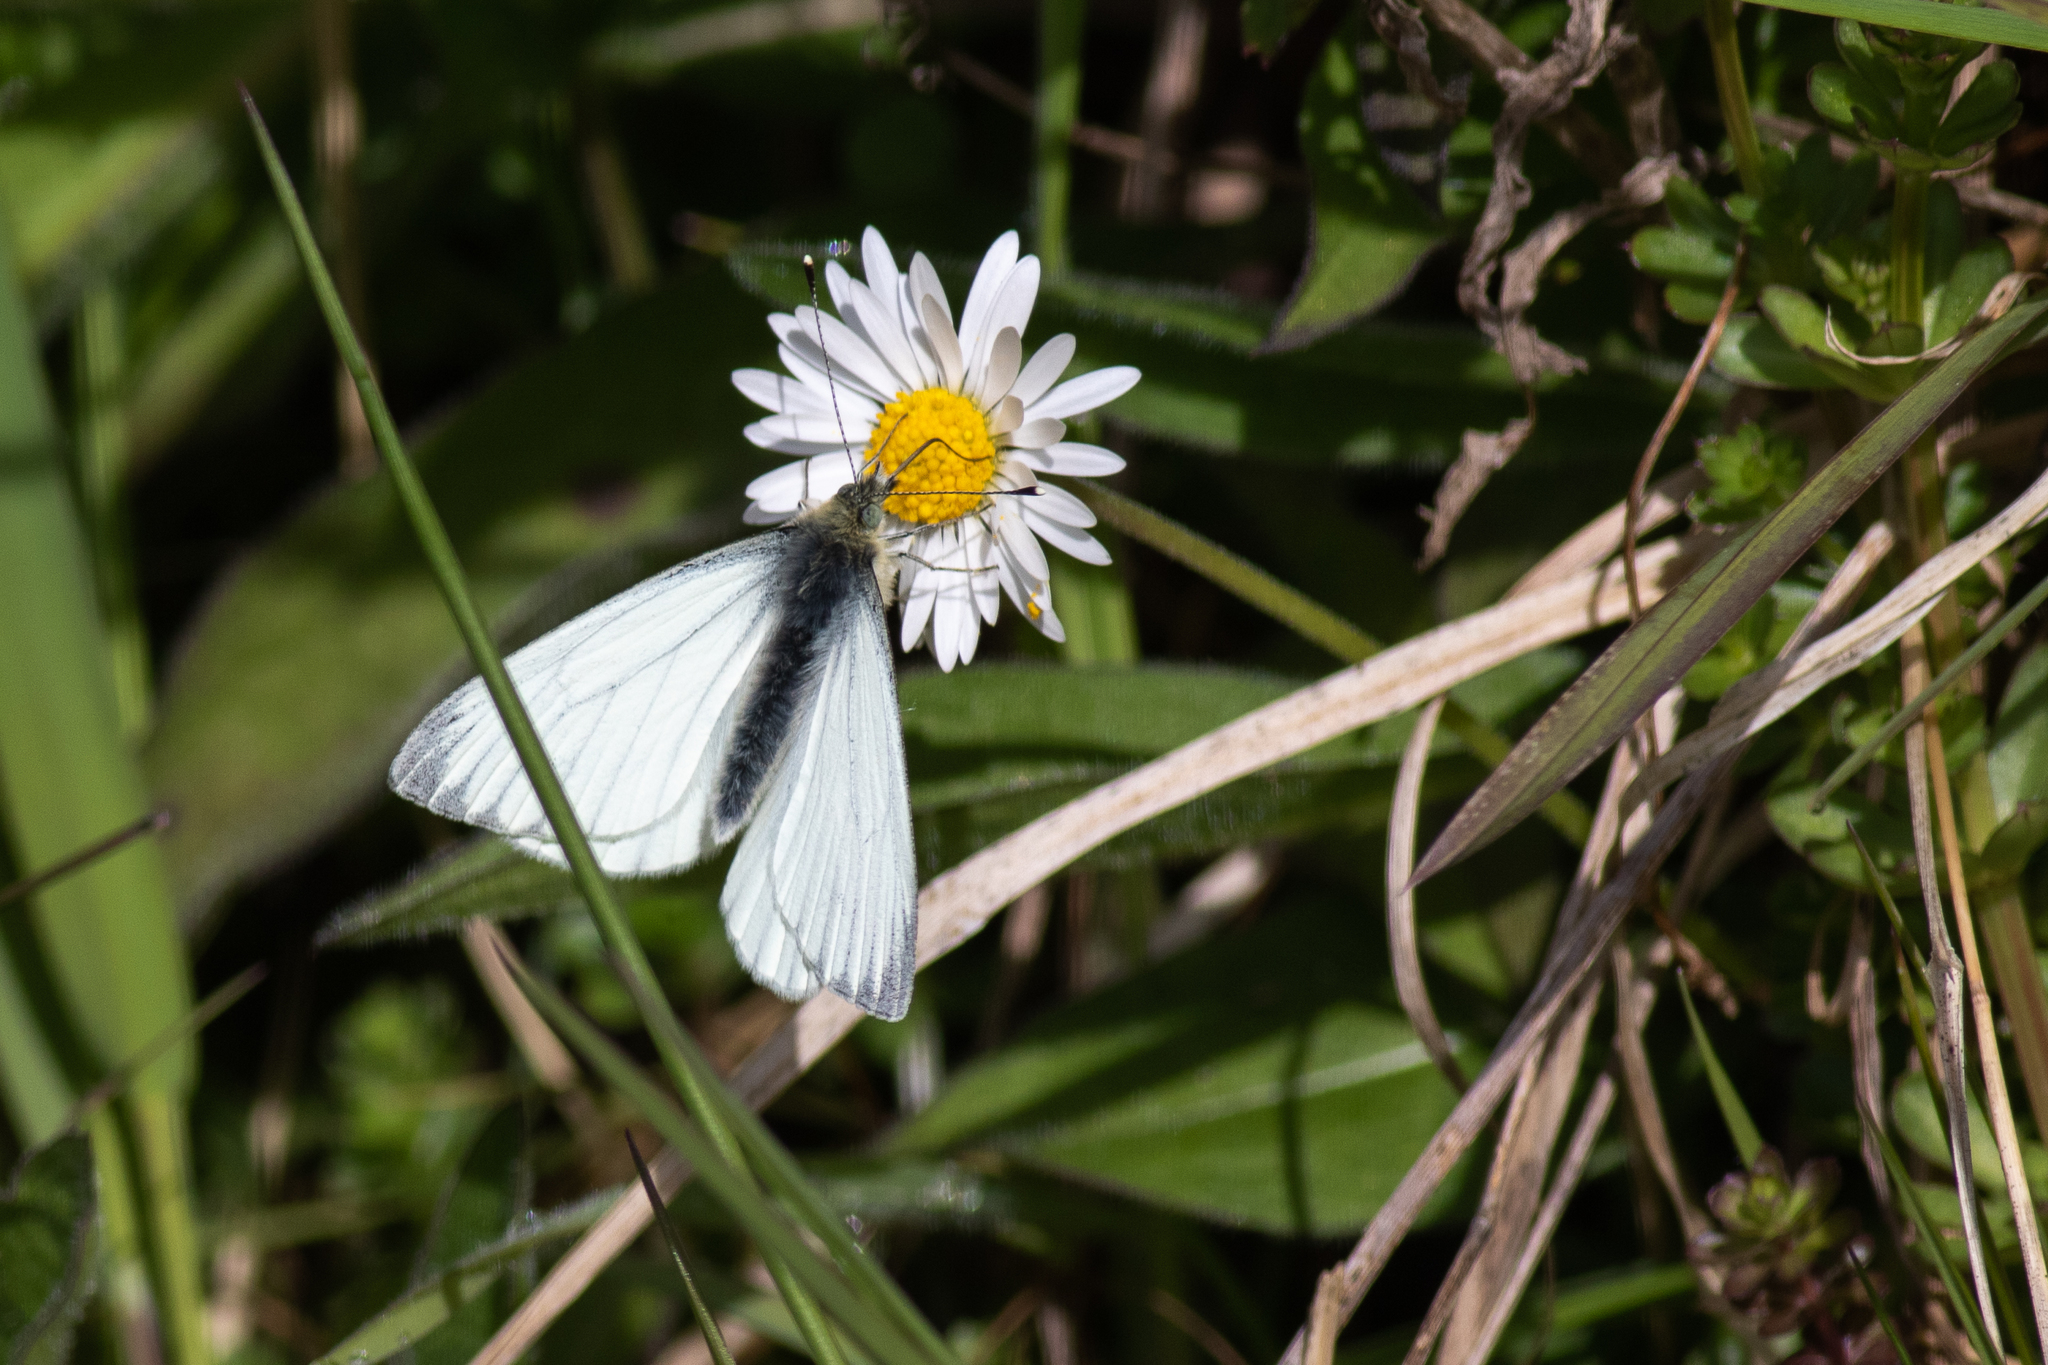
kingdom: Animalia
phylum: Arthropoda
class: Insecta
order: Lepidoptera
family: Pieridae
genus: Pieris
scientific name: Pieris napi
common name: Green-veined white
